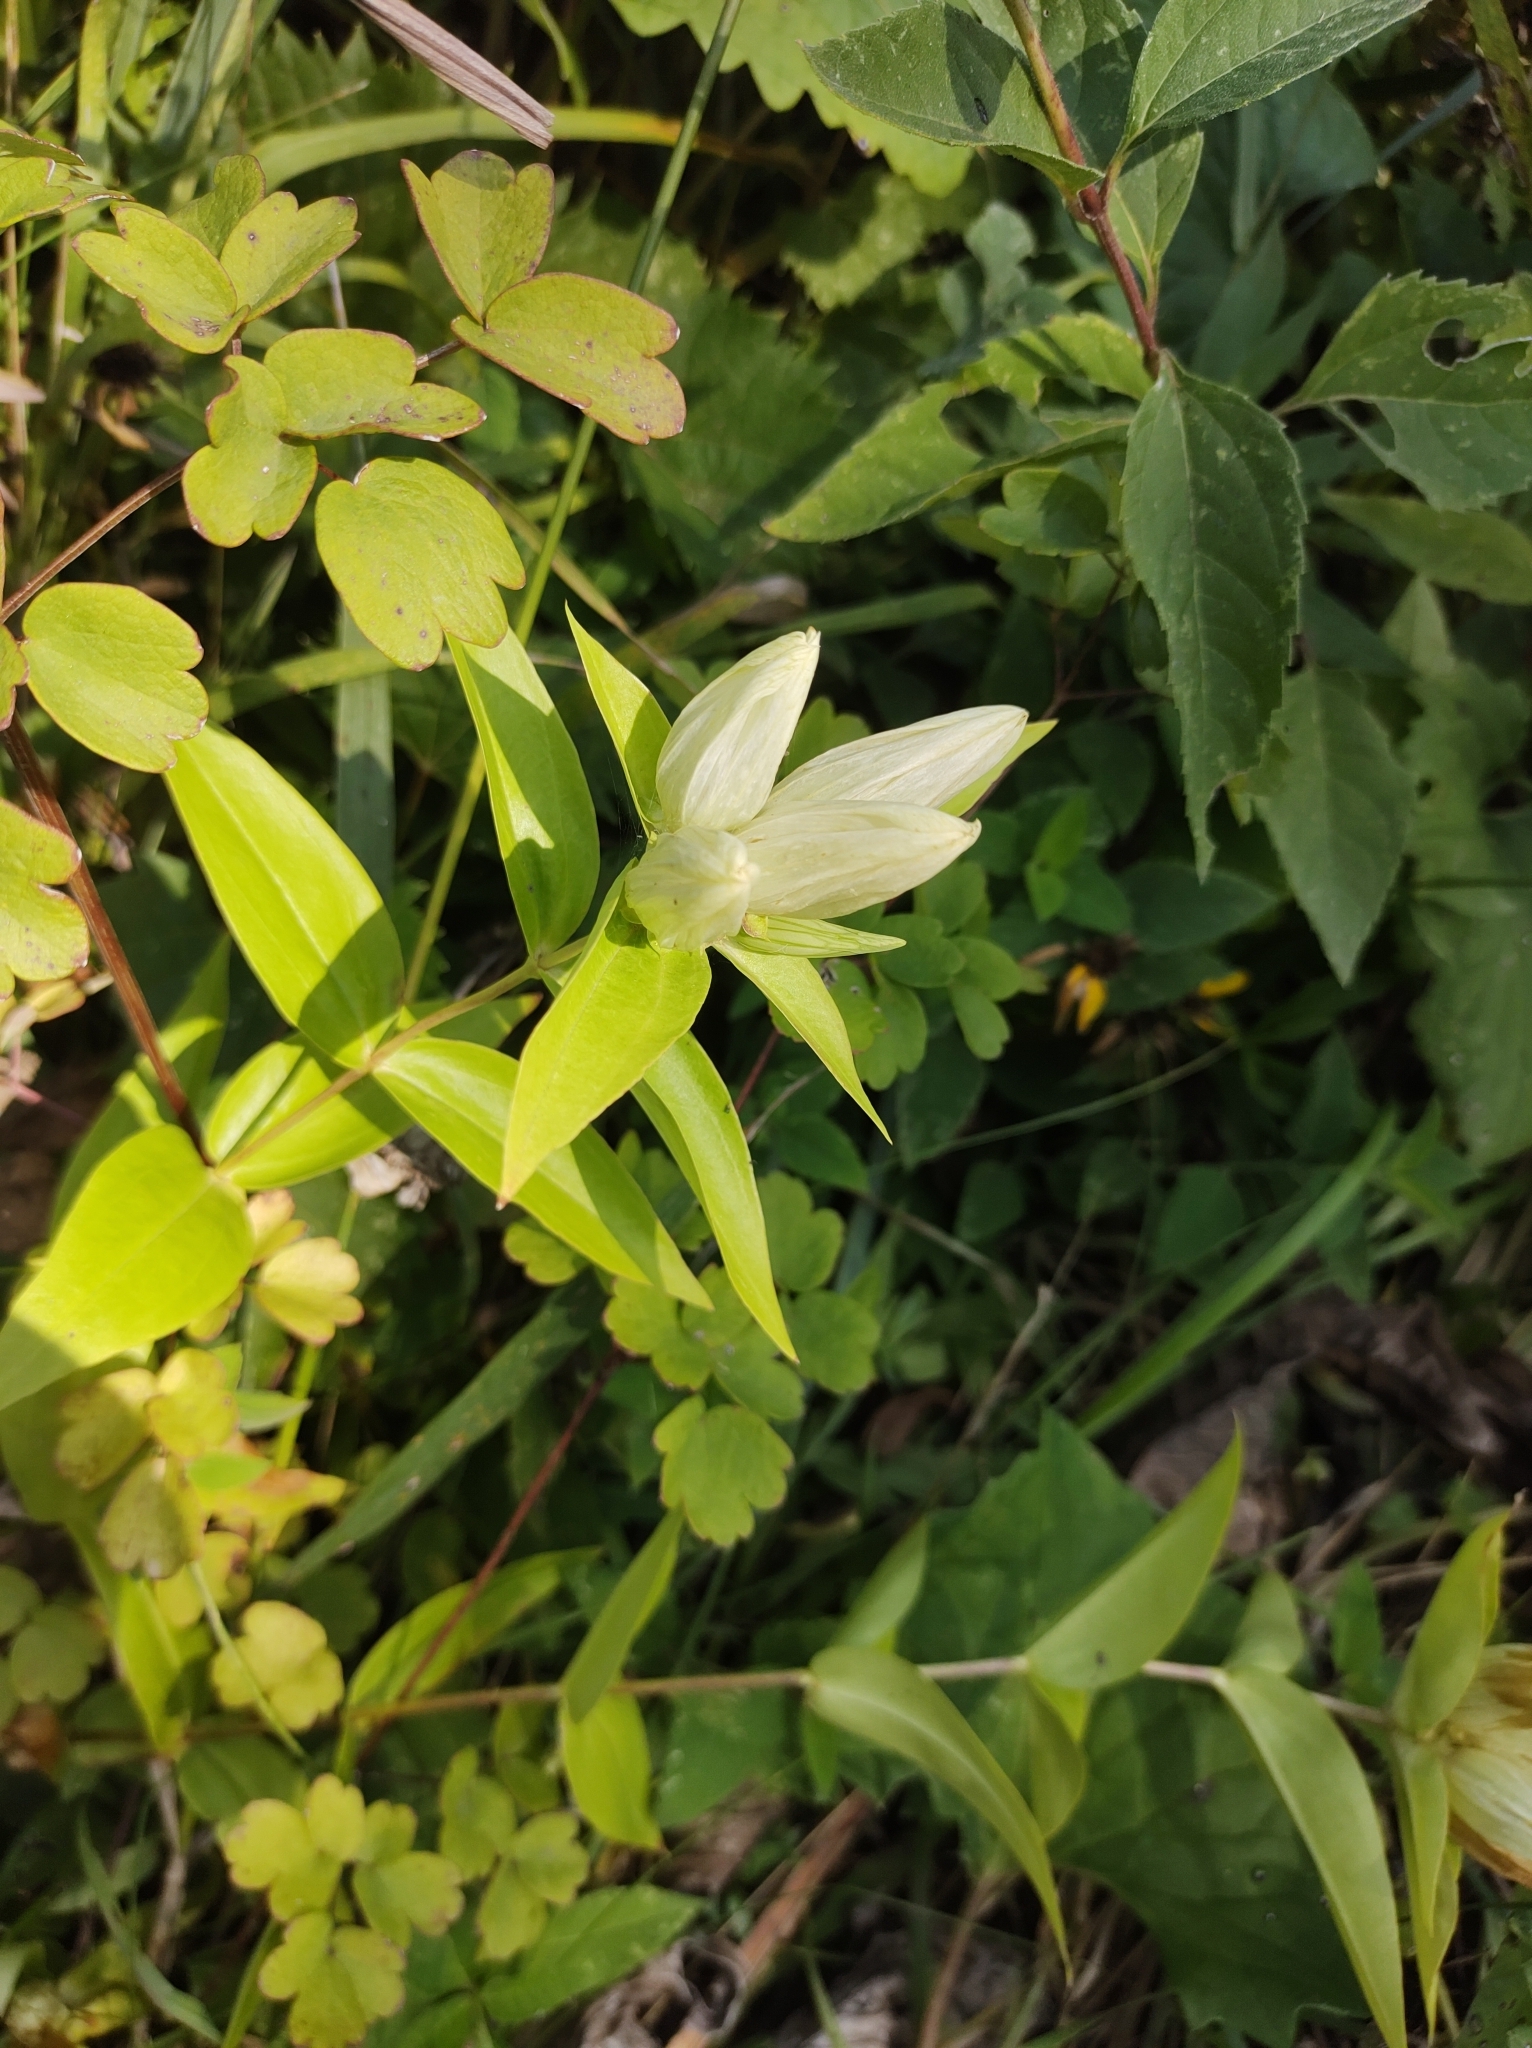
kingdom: Plantae
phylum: Tracheophyta
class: Magnoliopsida
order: Gentianales
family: Gentianaceae
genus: Gentiana
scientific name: Gentiana alba
